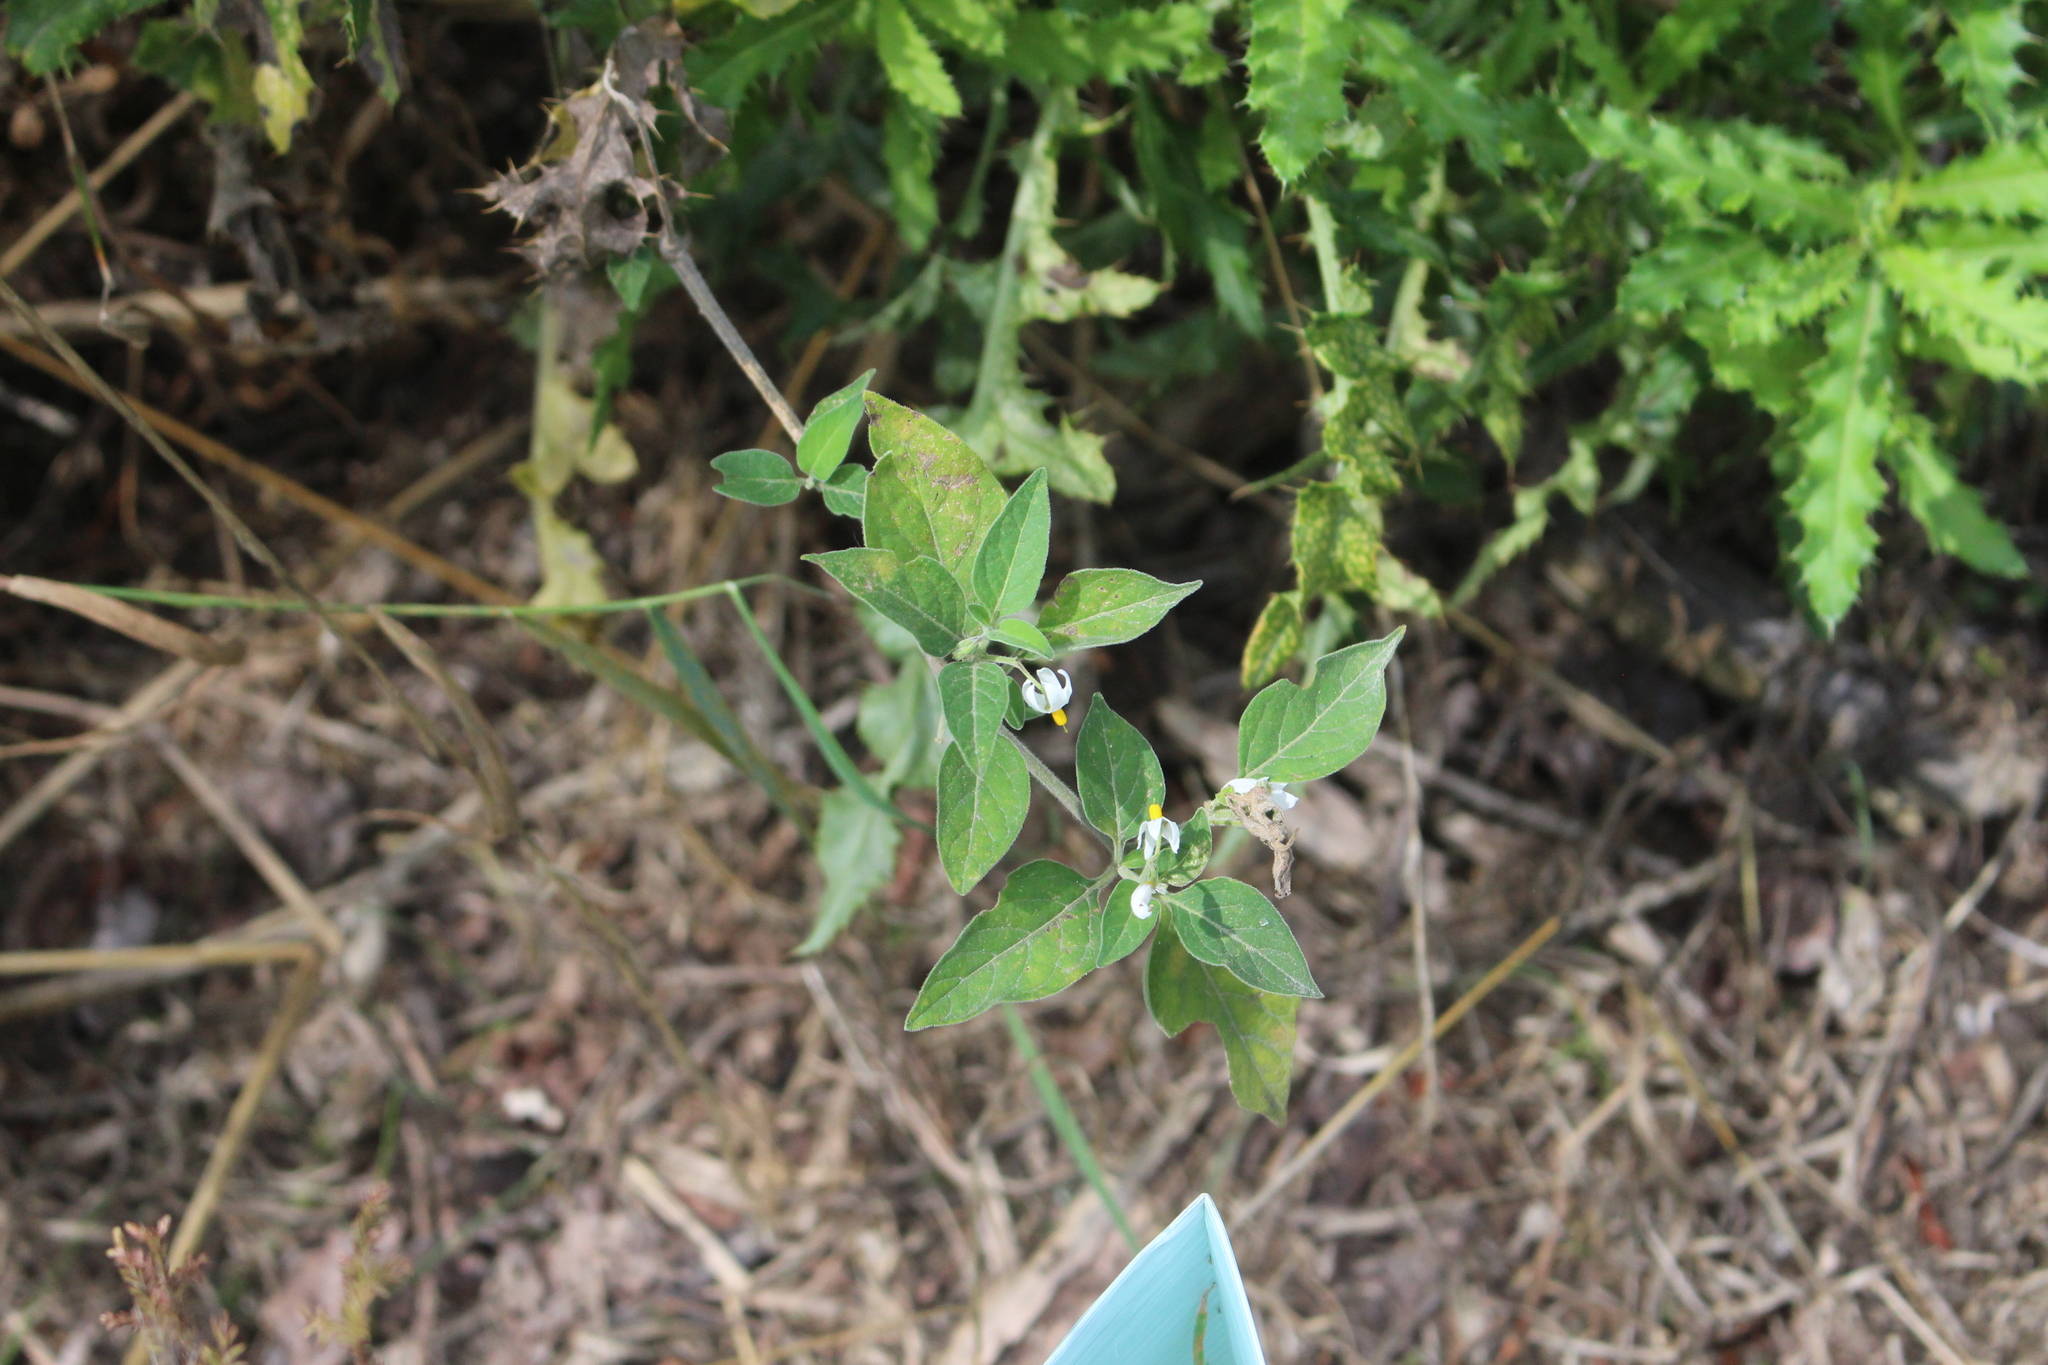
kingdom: Plantae
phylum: Tracheophyta
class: Magnoliopsida
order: Solanales
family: Solanaceae
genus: Solanum
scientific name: Solanum chenopodioides
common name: Tall nightshade
